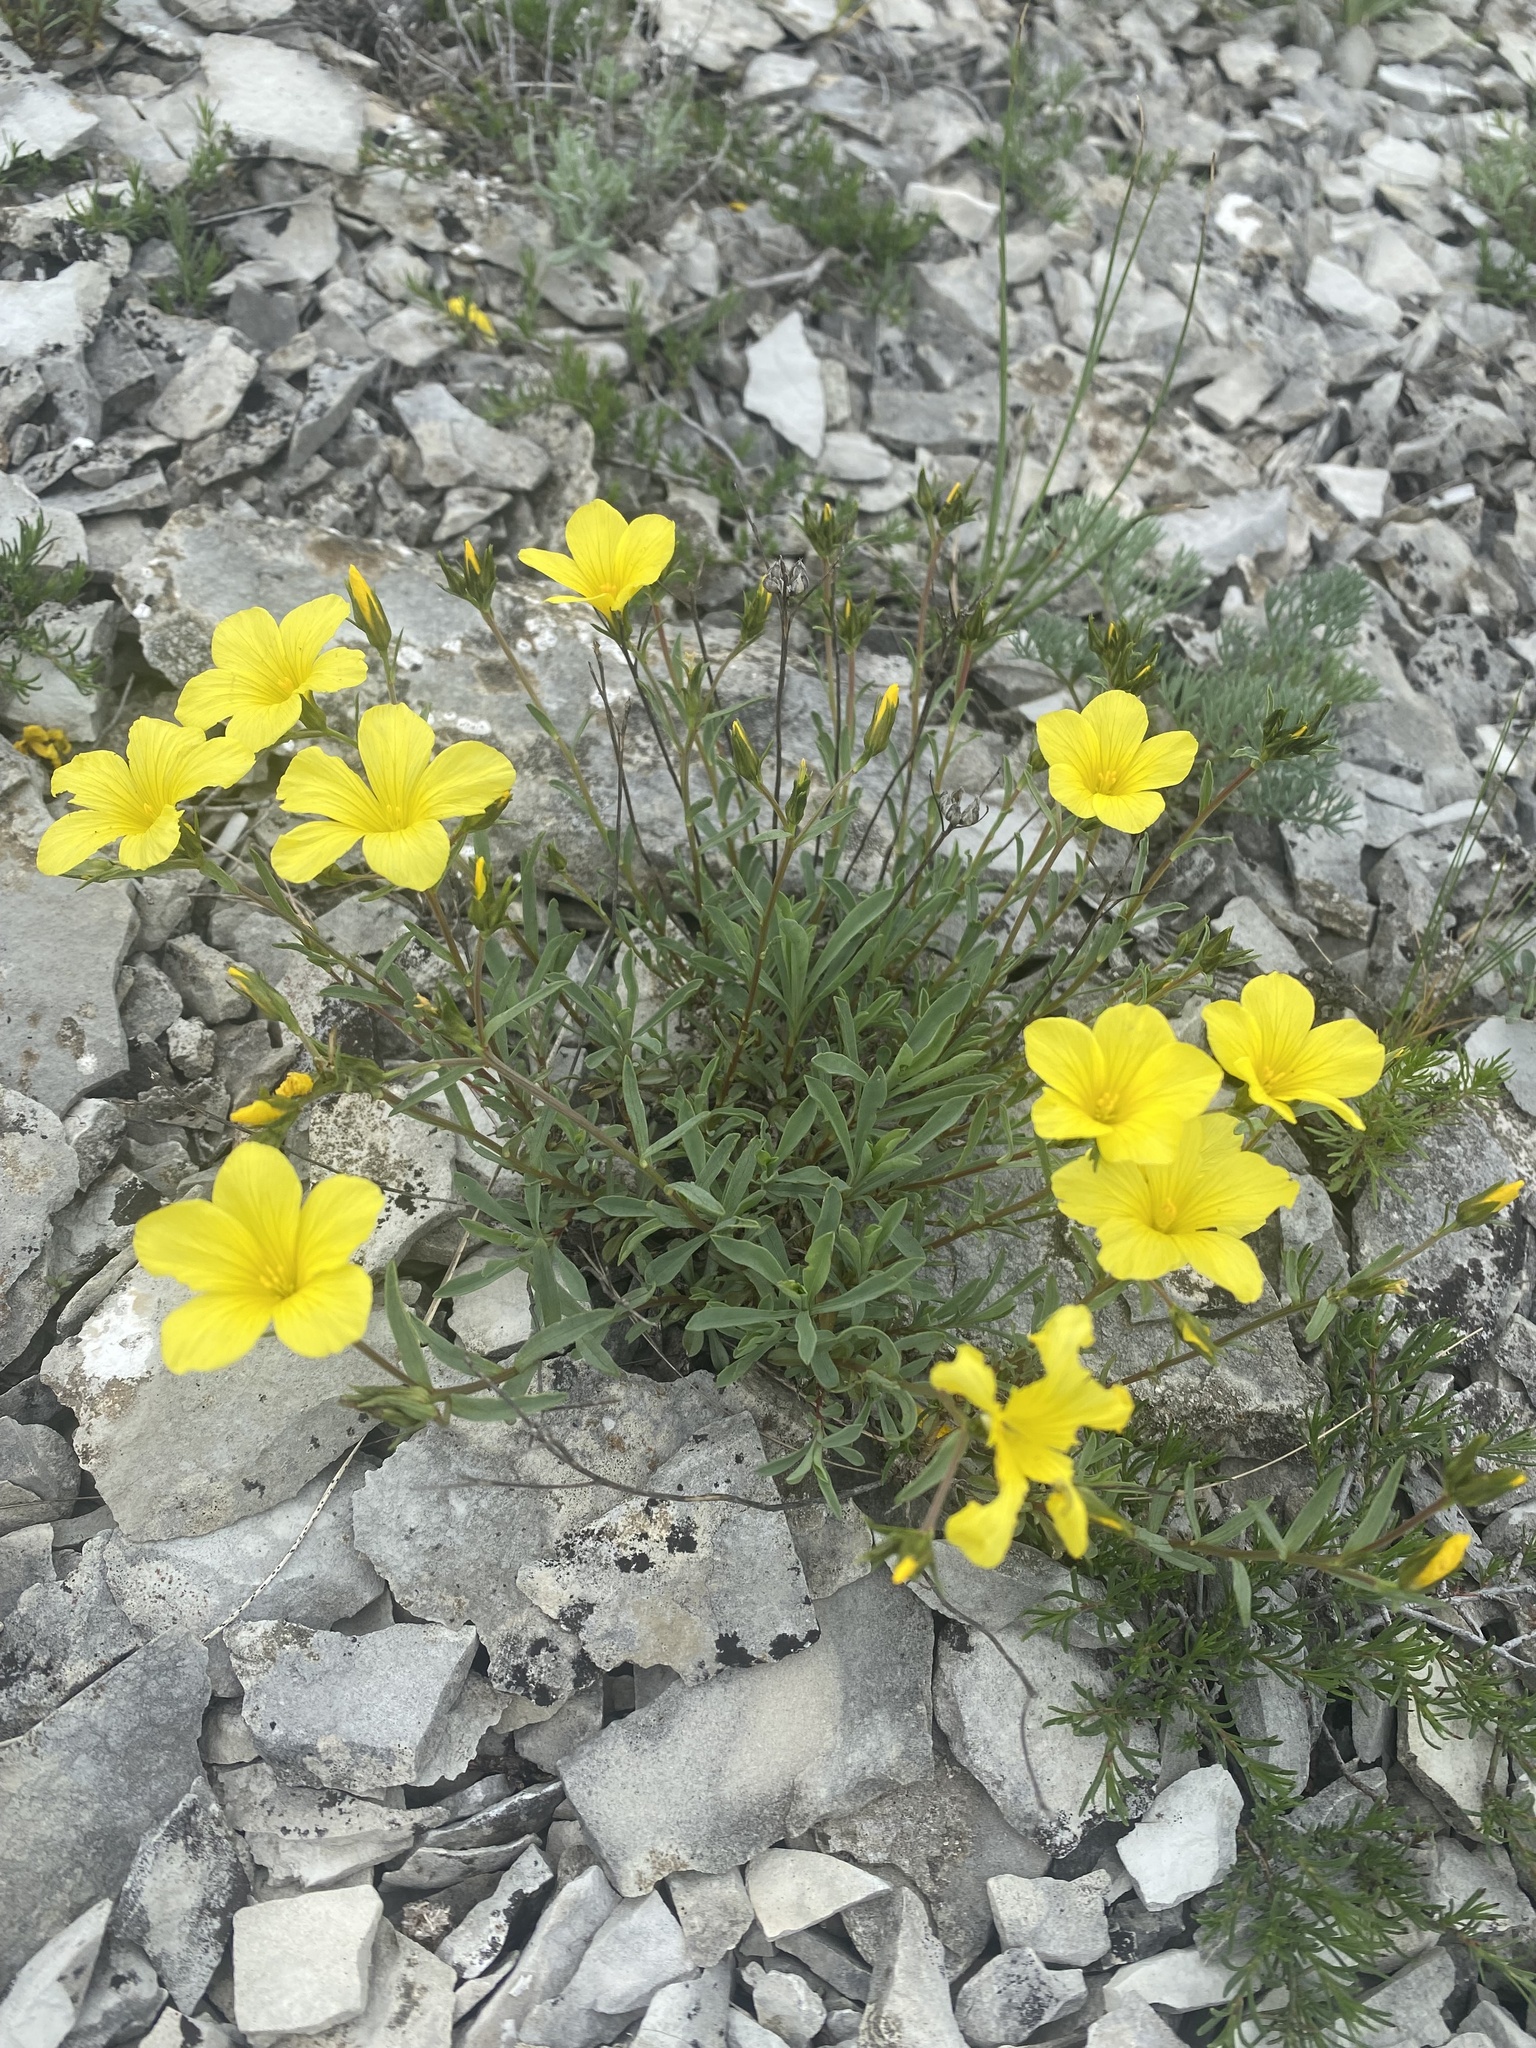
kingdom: Plantae
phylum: Tracheophyta
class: Magnoliopsida
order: Malpighiales
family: Linaceae
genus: Linum
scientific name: Linum tauricum
